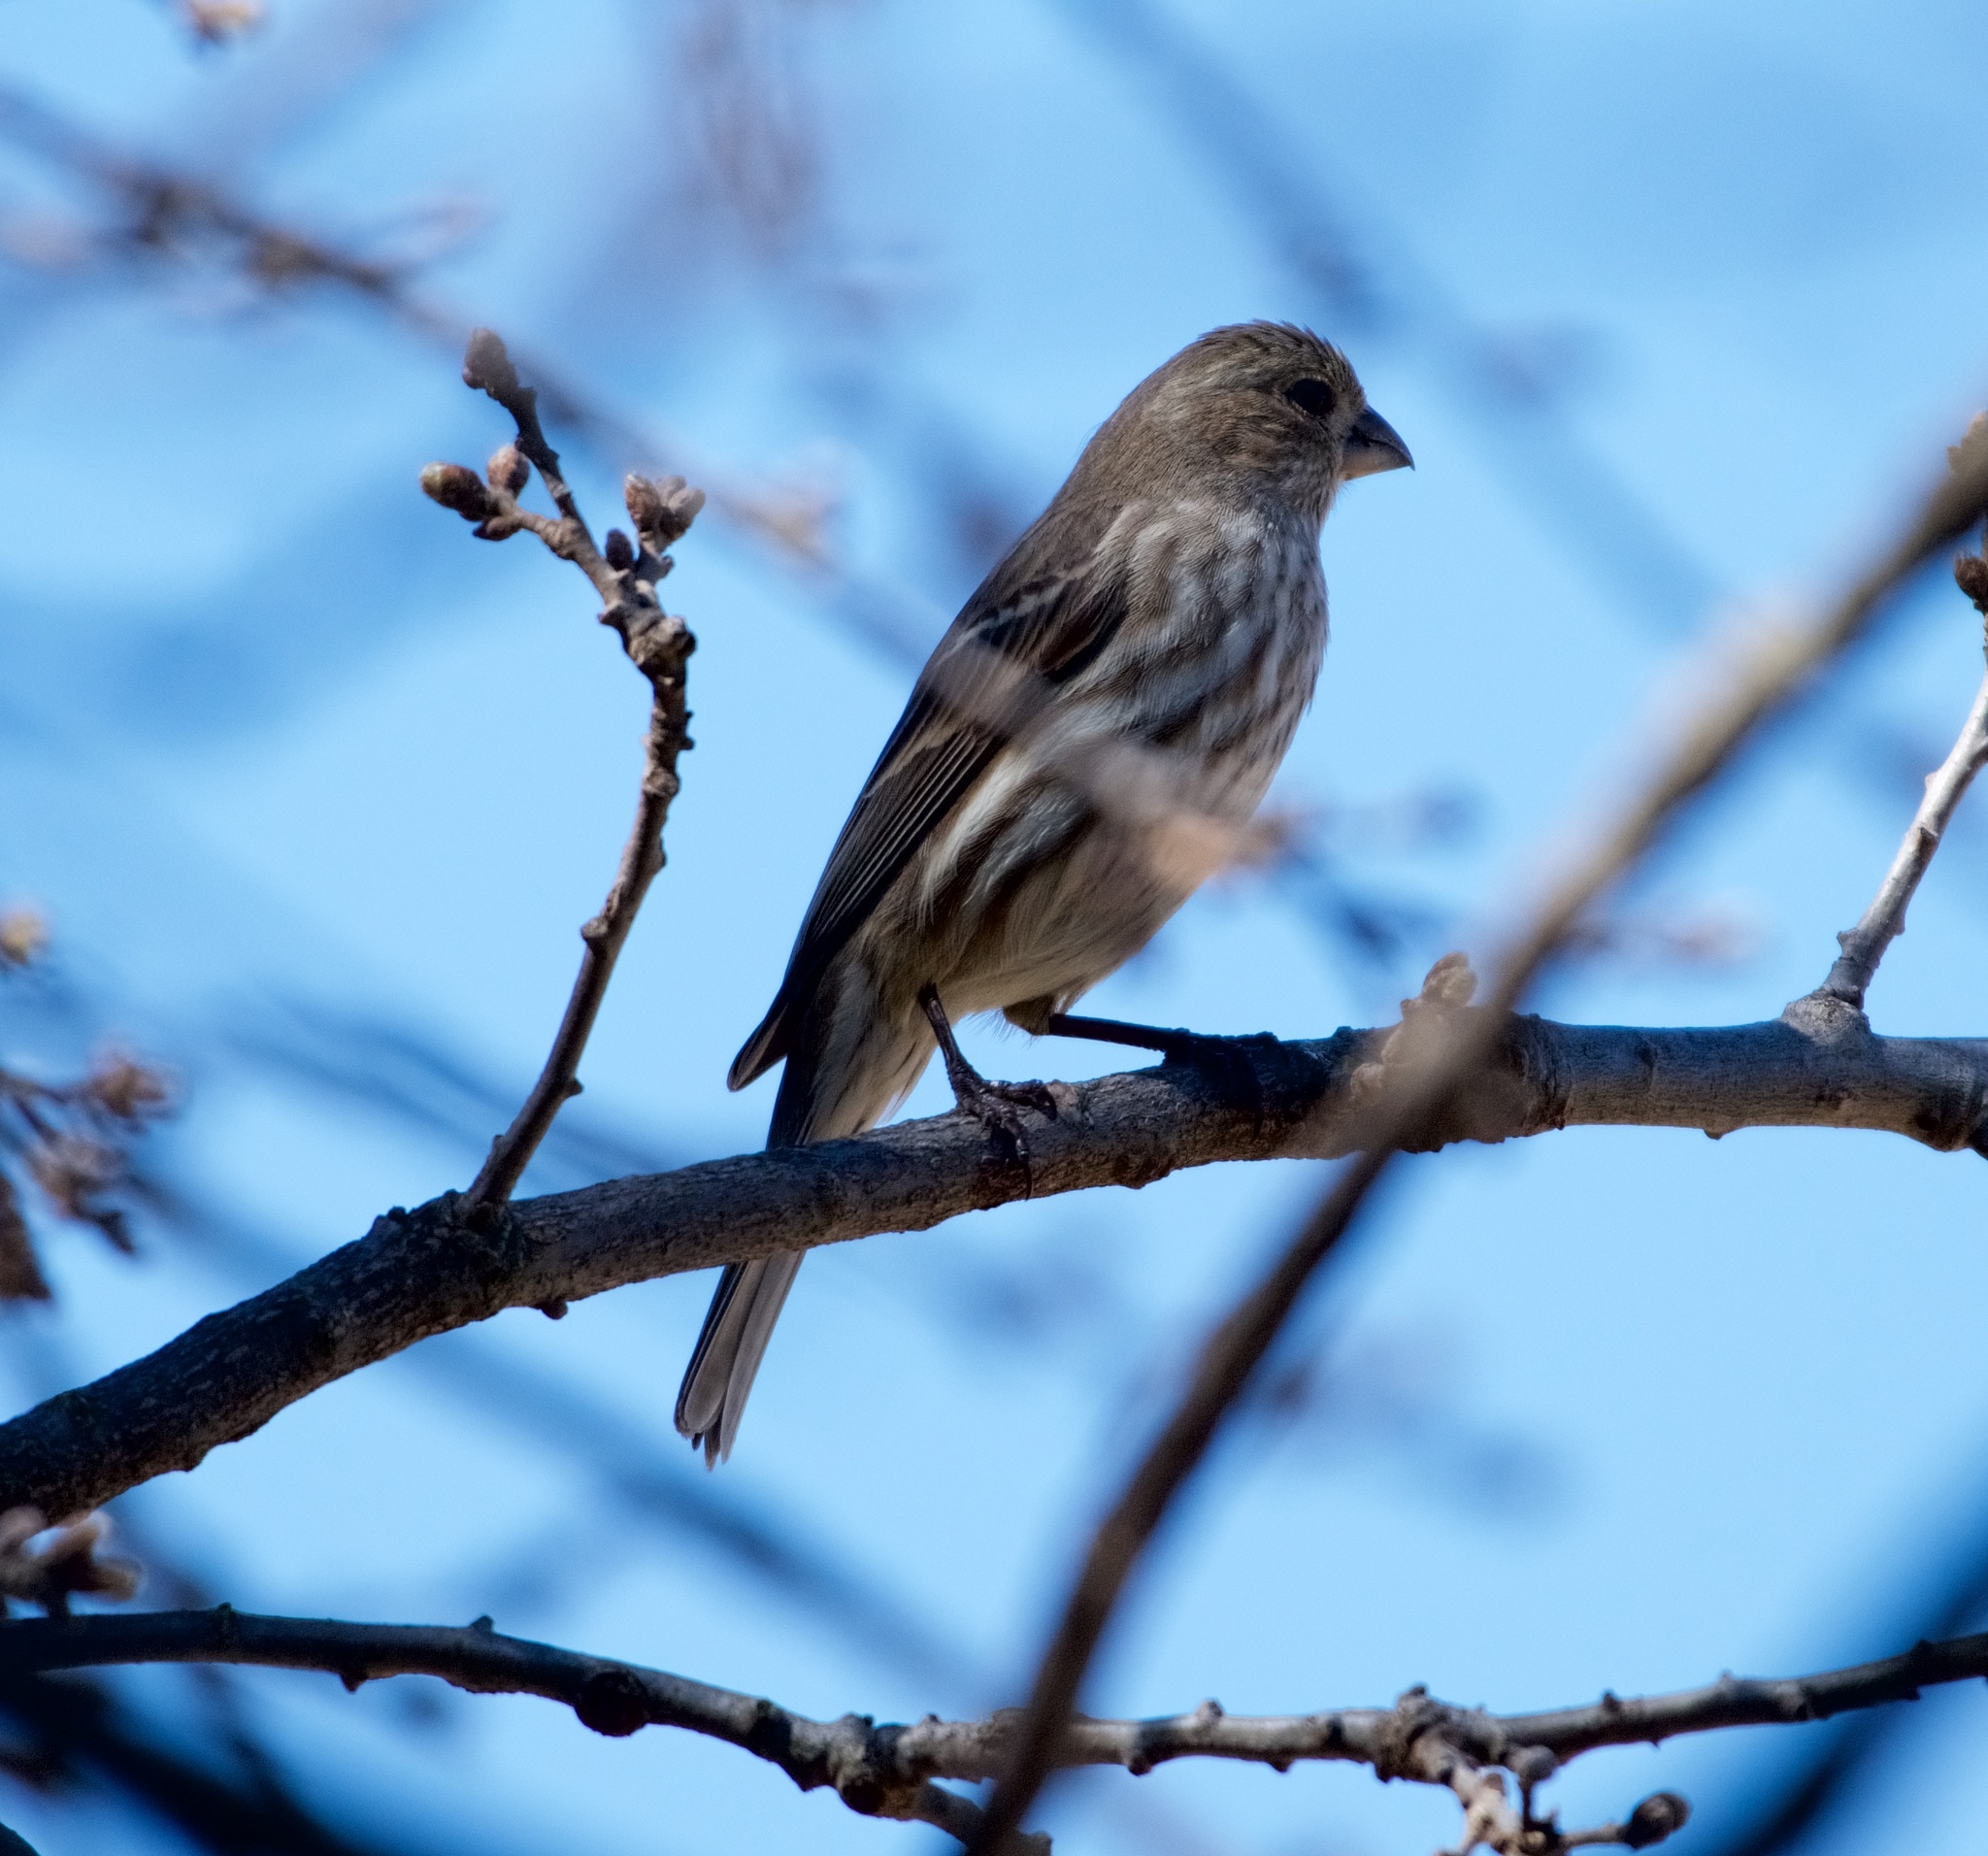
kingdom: Animalia
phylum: Chordata
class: Aves
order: Passeriformes
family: Fringillidae
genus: Haemorhous
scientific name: Haemorhous mexicanus
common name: House finch
